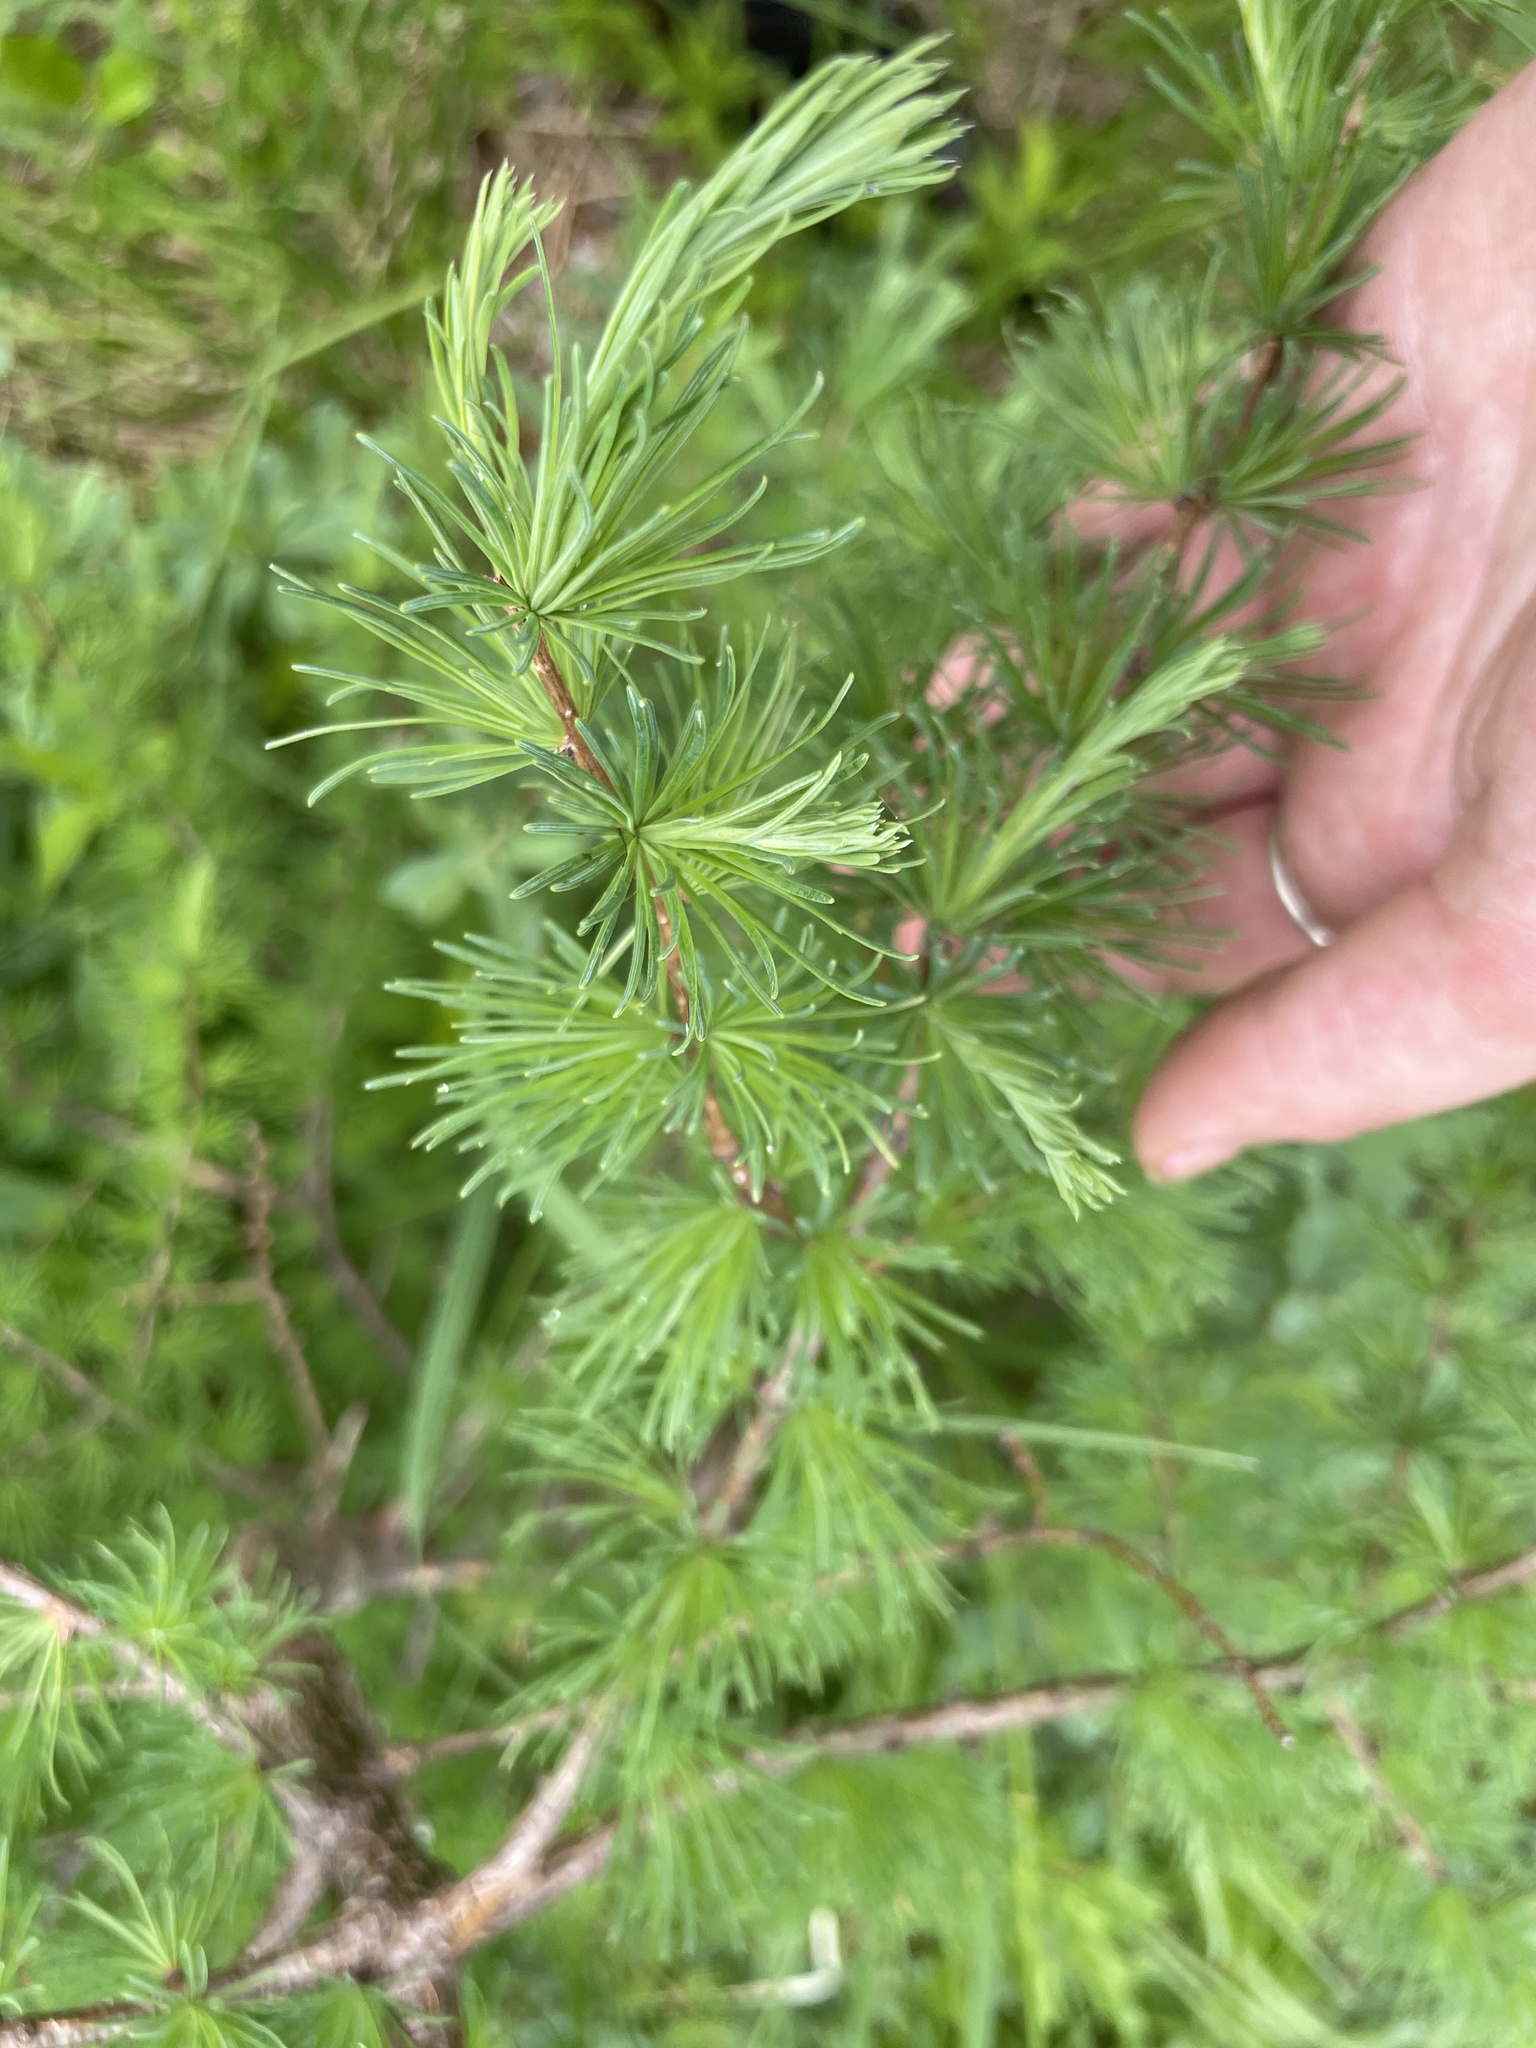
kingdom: Plantae
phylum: Tracheophyta
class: Pinopsida
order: Pinales
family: Pinaceae
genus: Larix
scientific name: Larix laricina
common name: American larch
